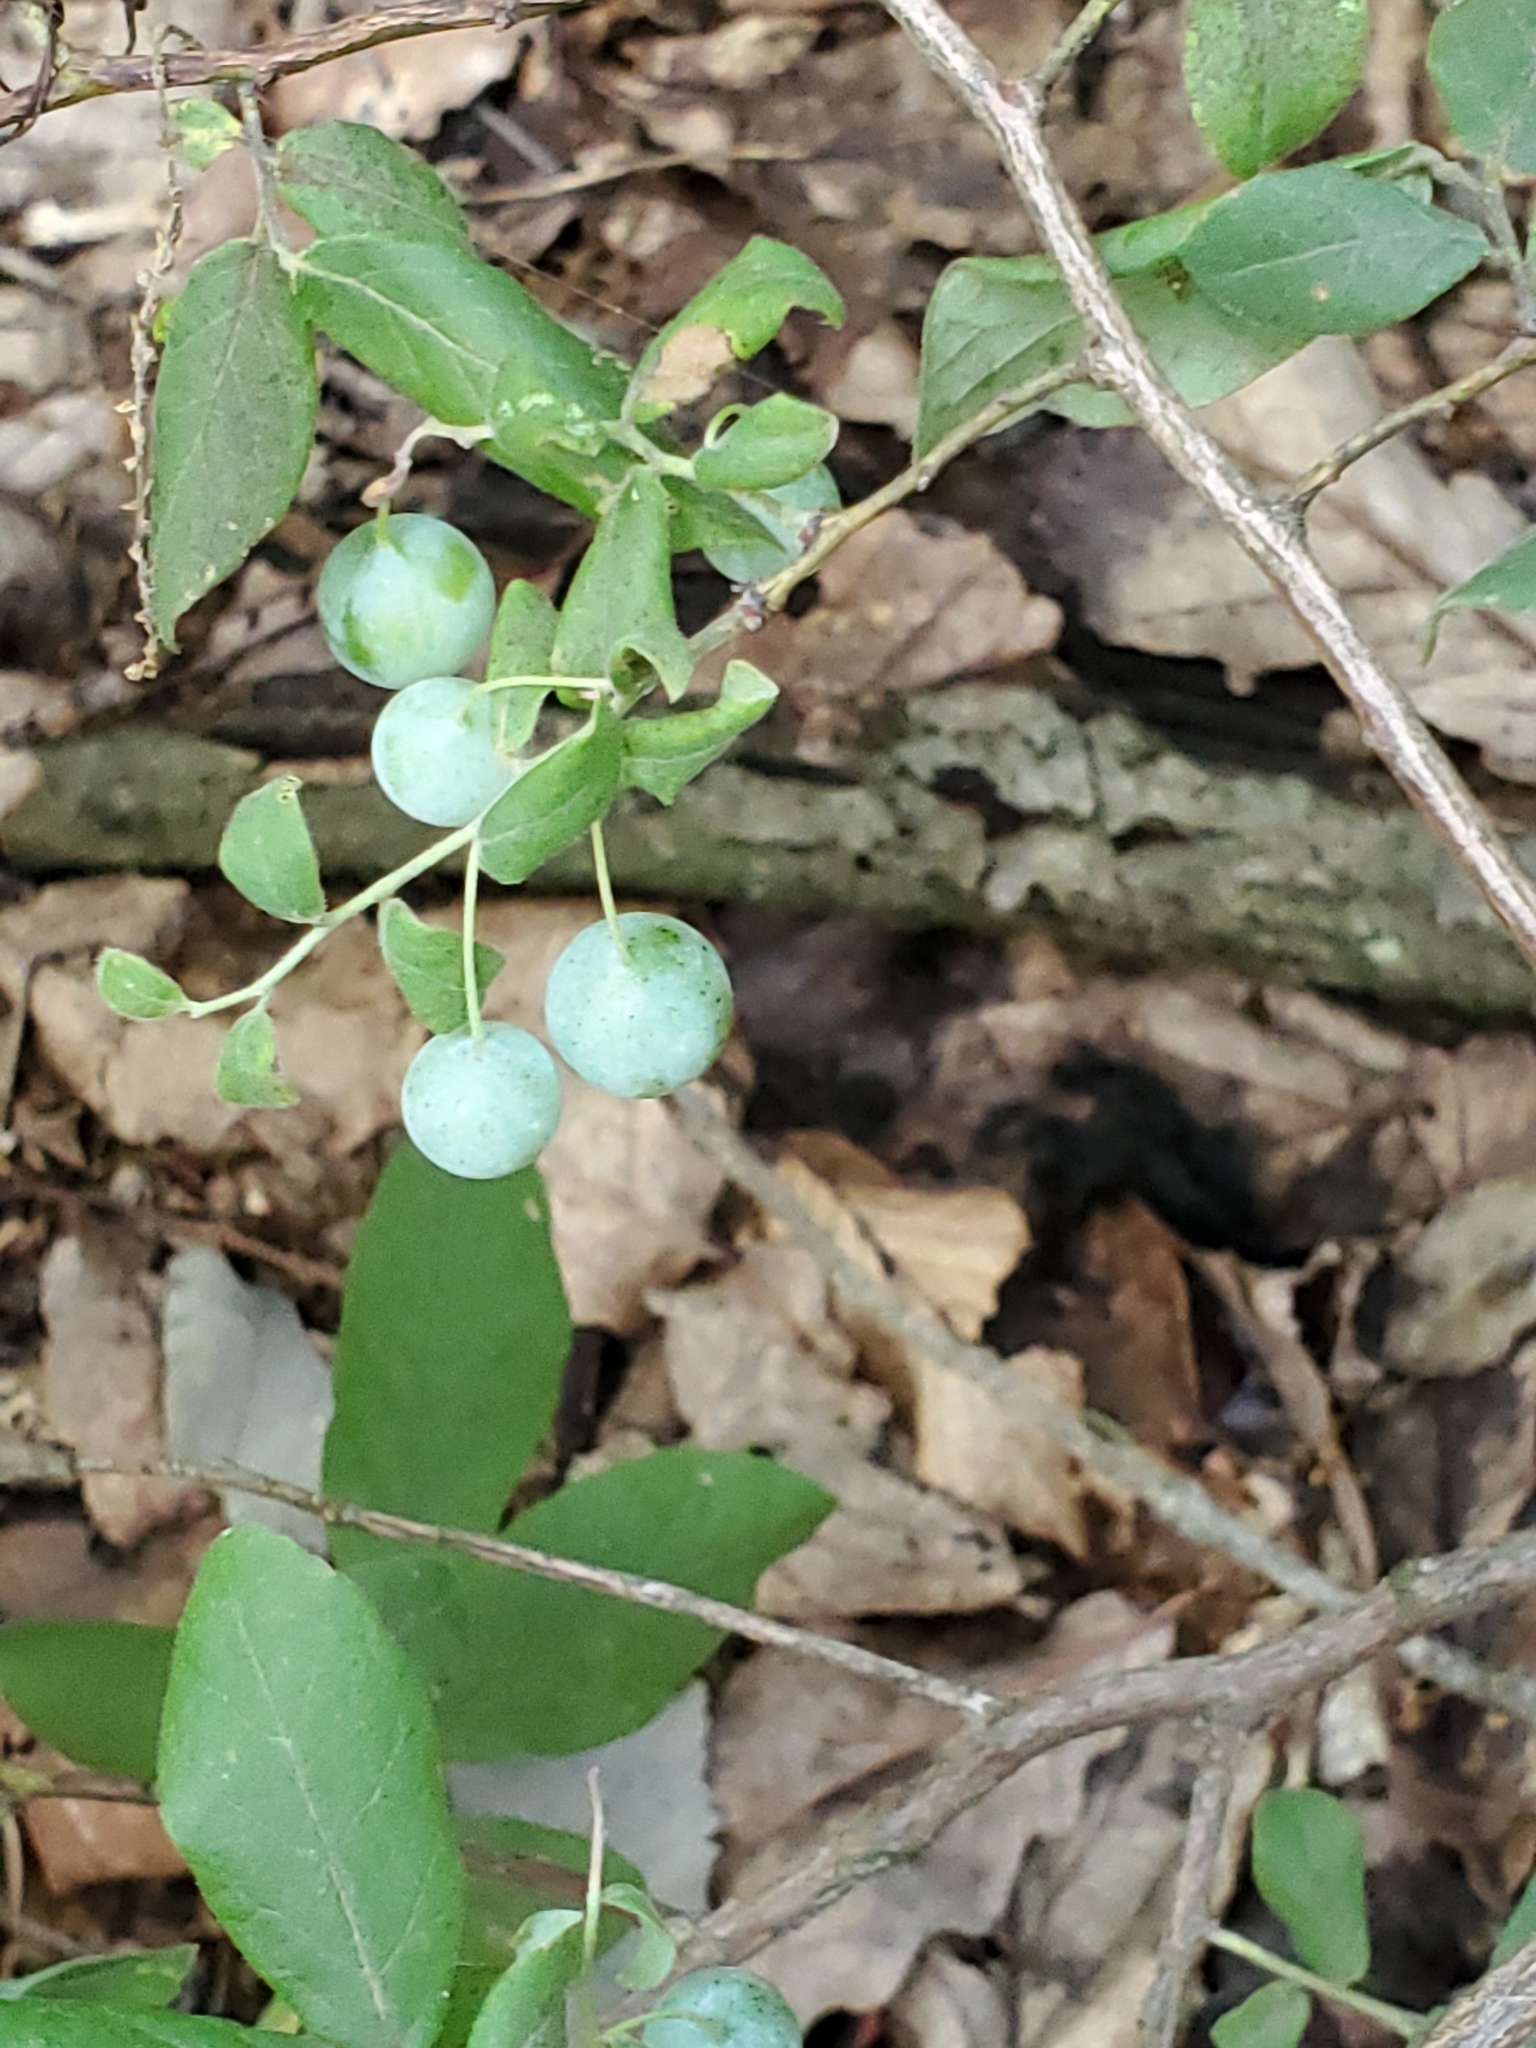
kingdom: Plantae
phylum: Tracheophyta
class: Magnoliopsida
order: Ericales
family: Ericaceae
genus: Vaccinium
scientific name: Vaccinium stamineum
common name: Deerberry
